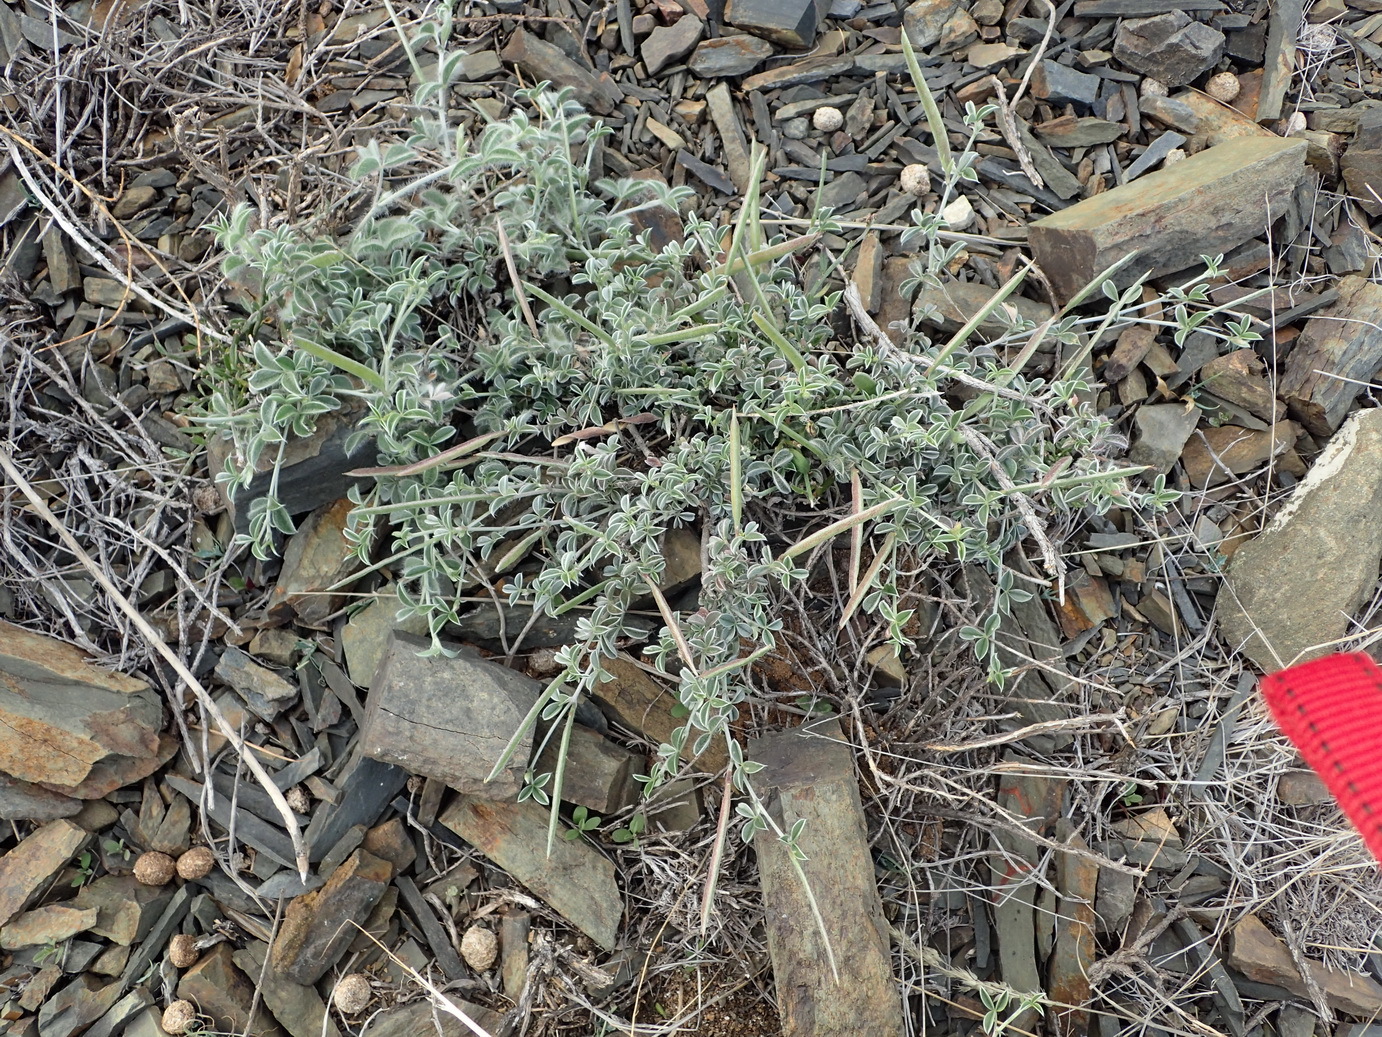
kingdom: Plantae
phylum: Tracheophyta
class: Magnoliopsida
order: Fabales
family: Fabaceae
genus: Lotononis
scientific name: Lotononis pungens
